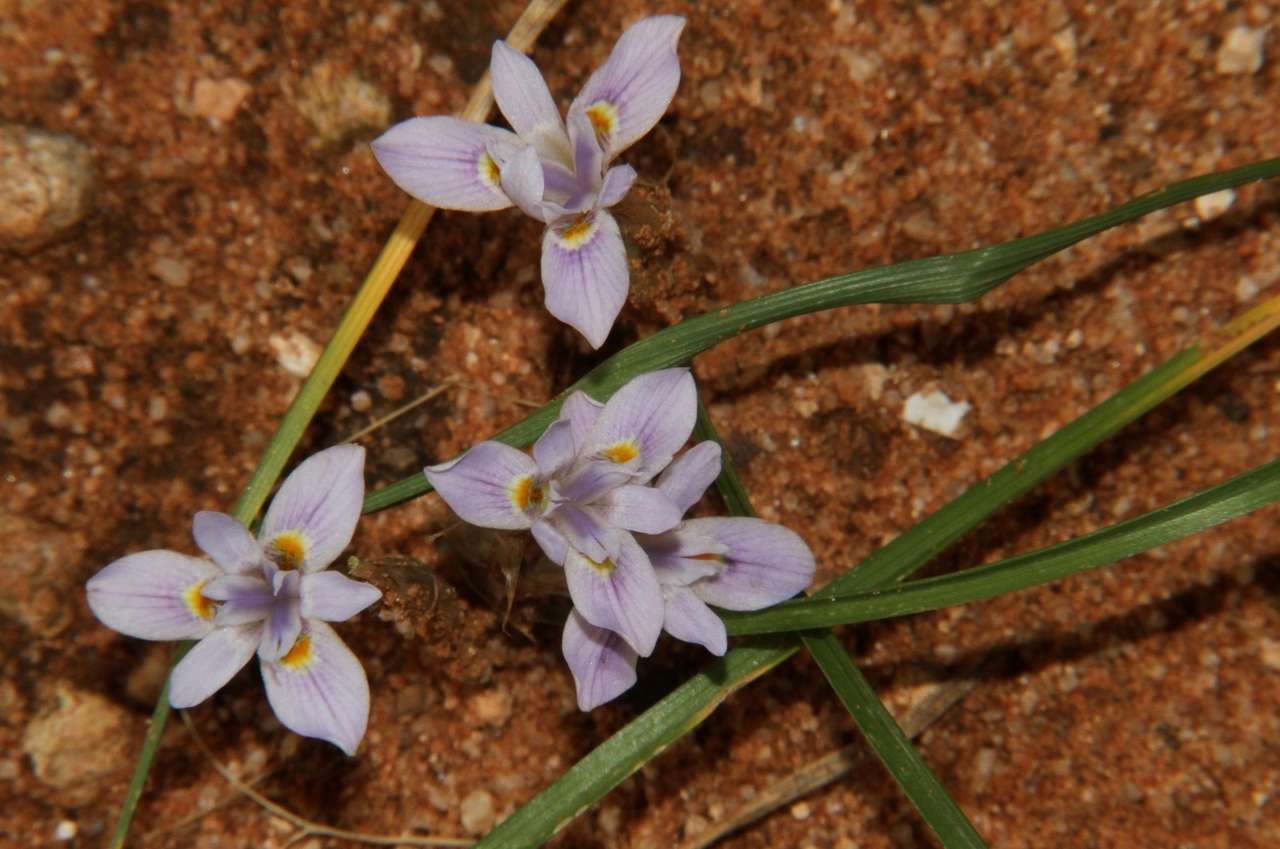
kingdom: Plantae
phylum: Tracheophyta
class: Liliopsida
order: Asparagales
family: Iridaceae
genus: Moraea
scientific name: Moraea setifolia
